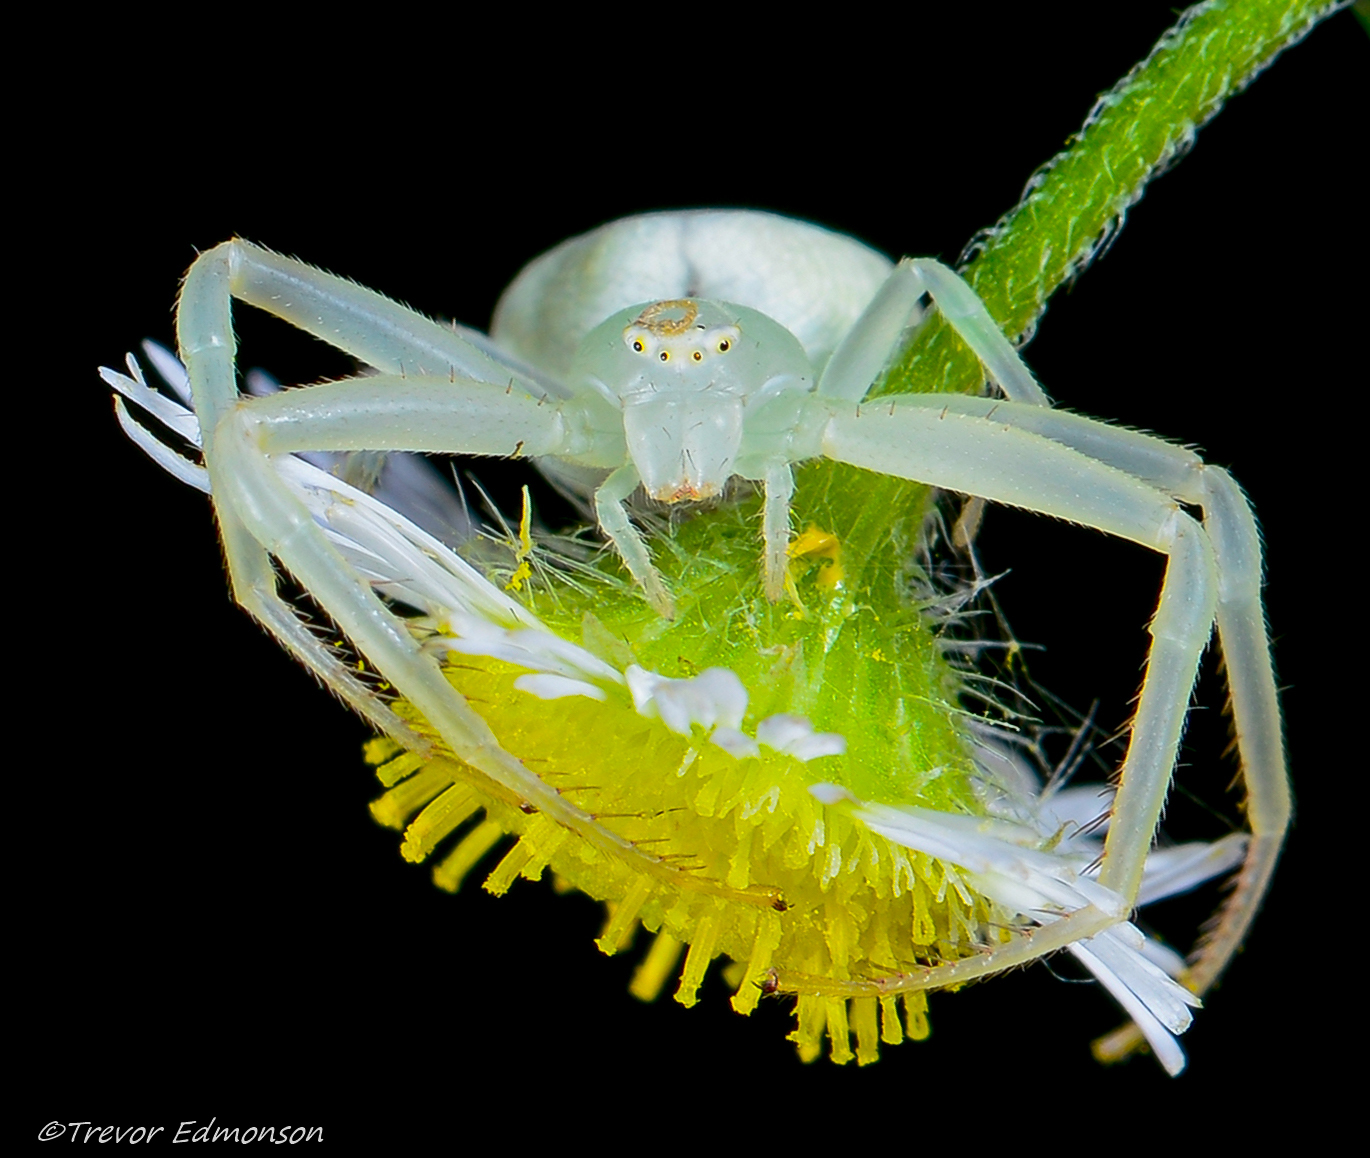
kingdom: Animalia
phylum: Arthropoda
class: Arachnida
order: Araneae
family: Thomisidae
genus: Misumessus
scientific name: Misumessus oblongus
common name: American green crab spider
